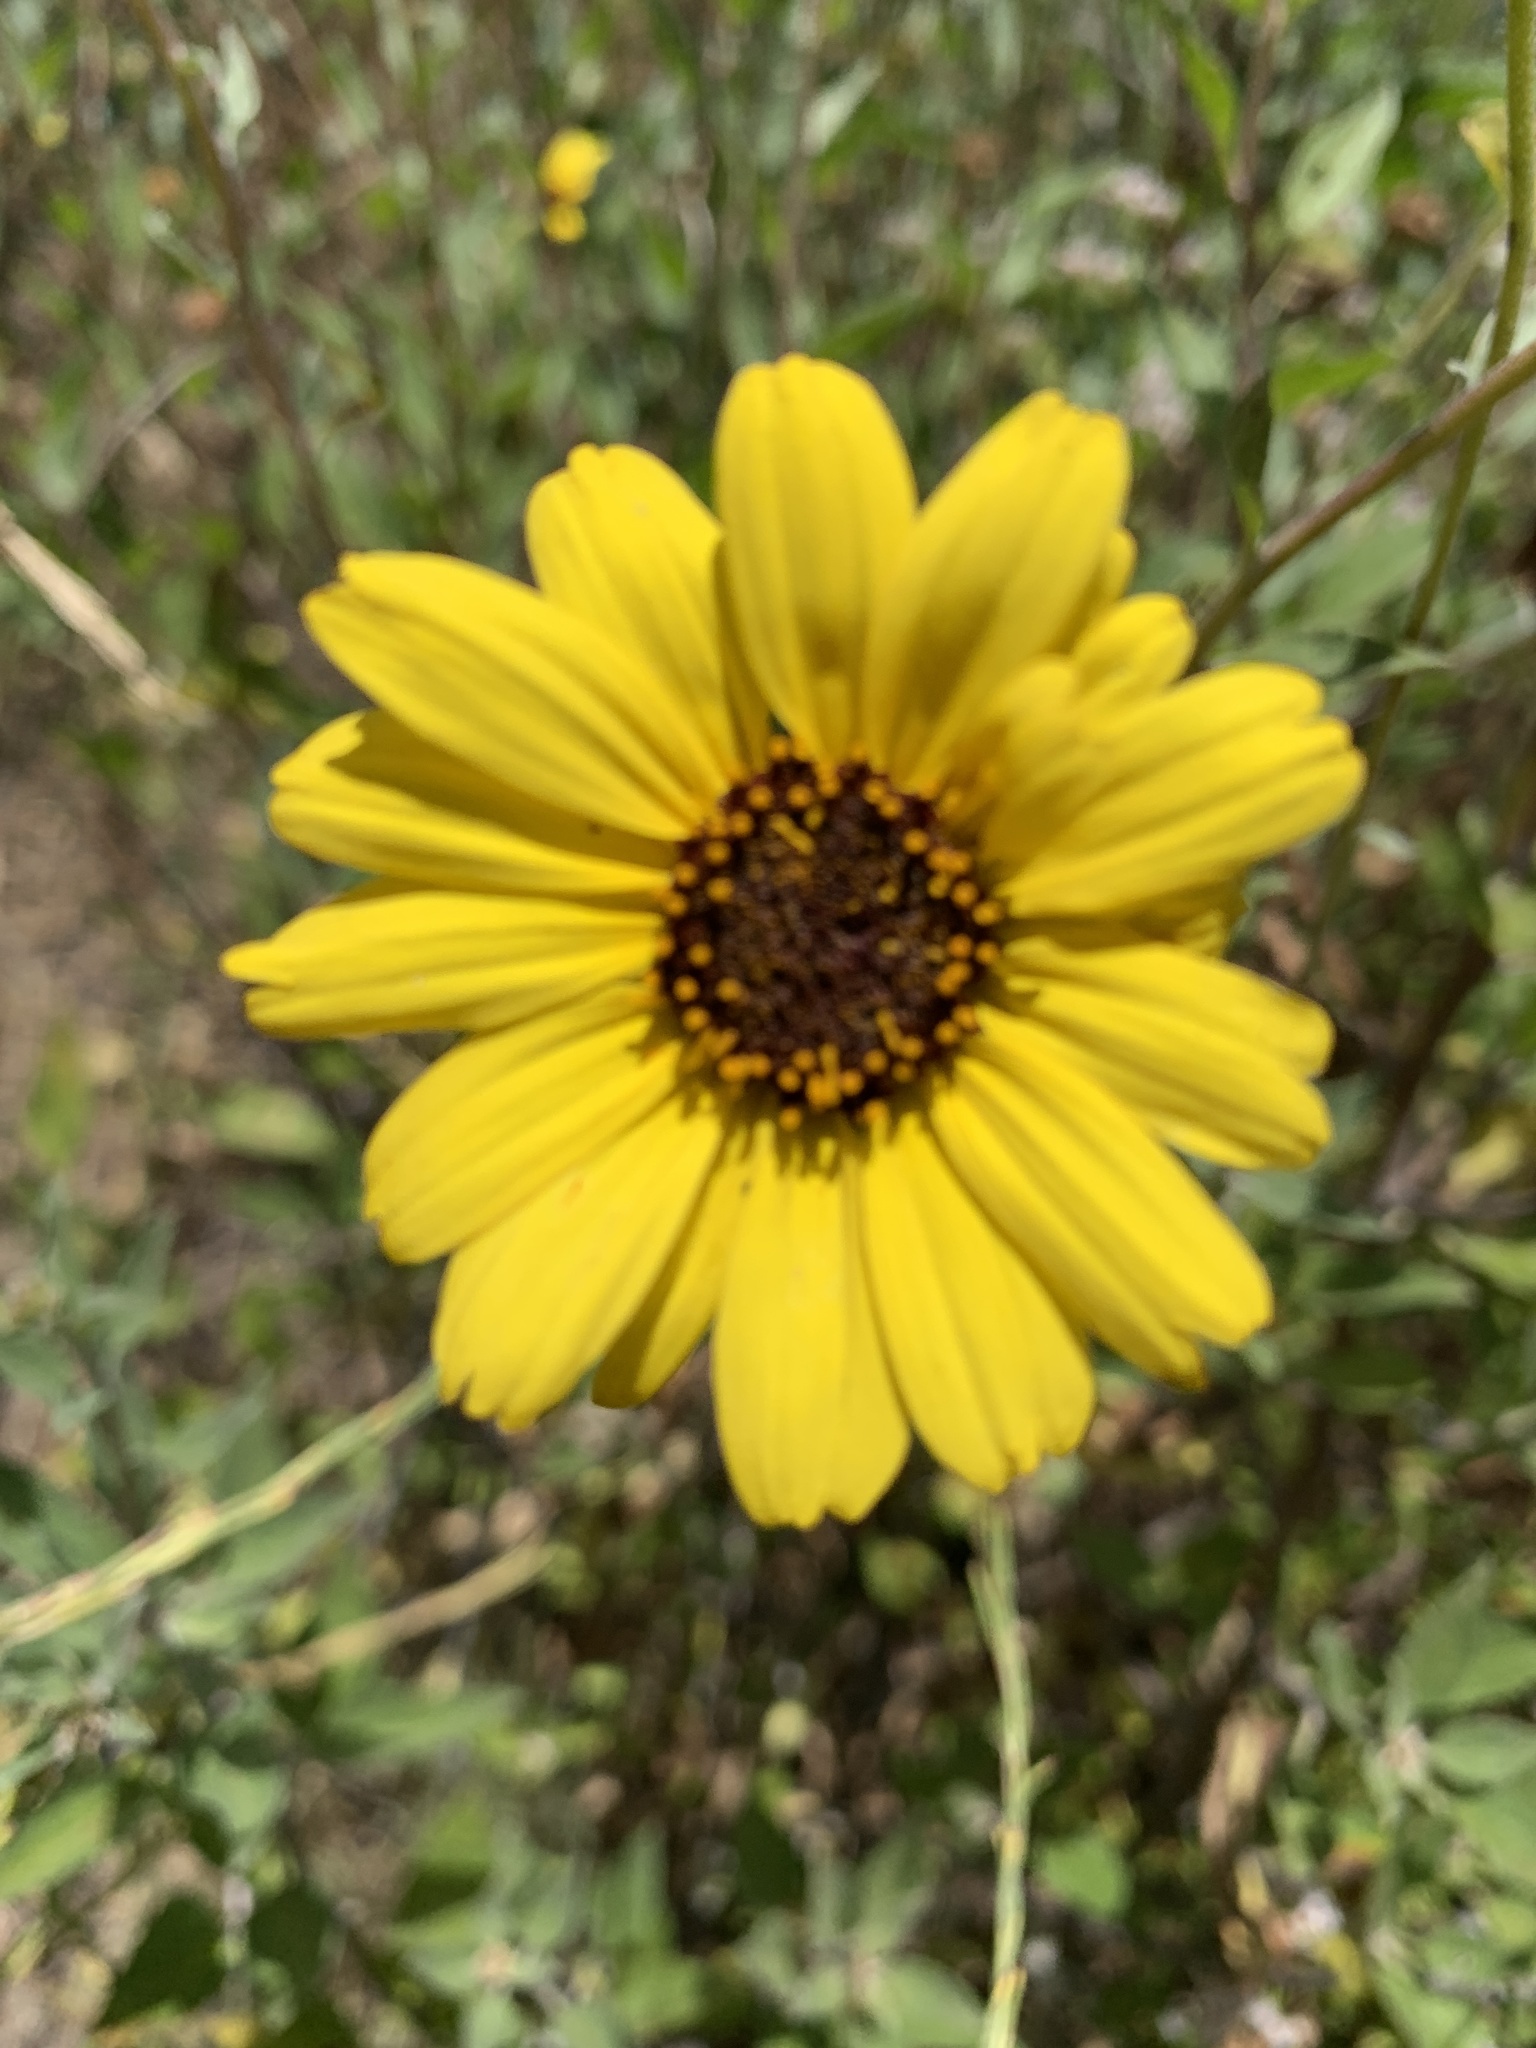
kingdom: Plantae
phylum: Tracheophyta
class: Magnoliopsida
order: Asterales
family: Asteraceae
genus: Encelia
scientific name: Encelia californica
